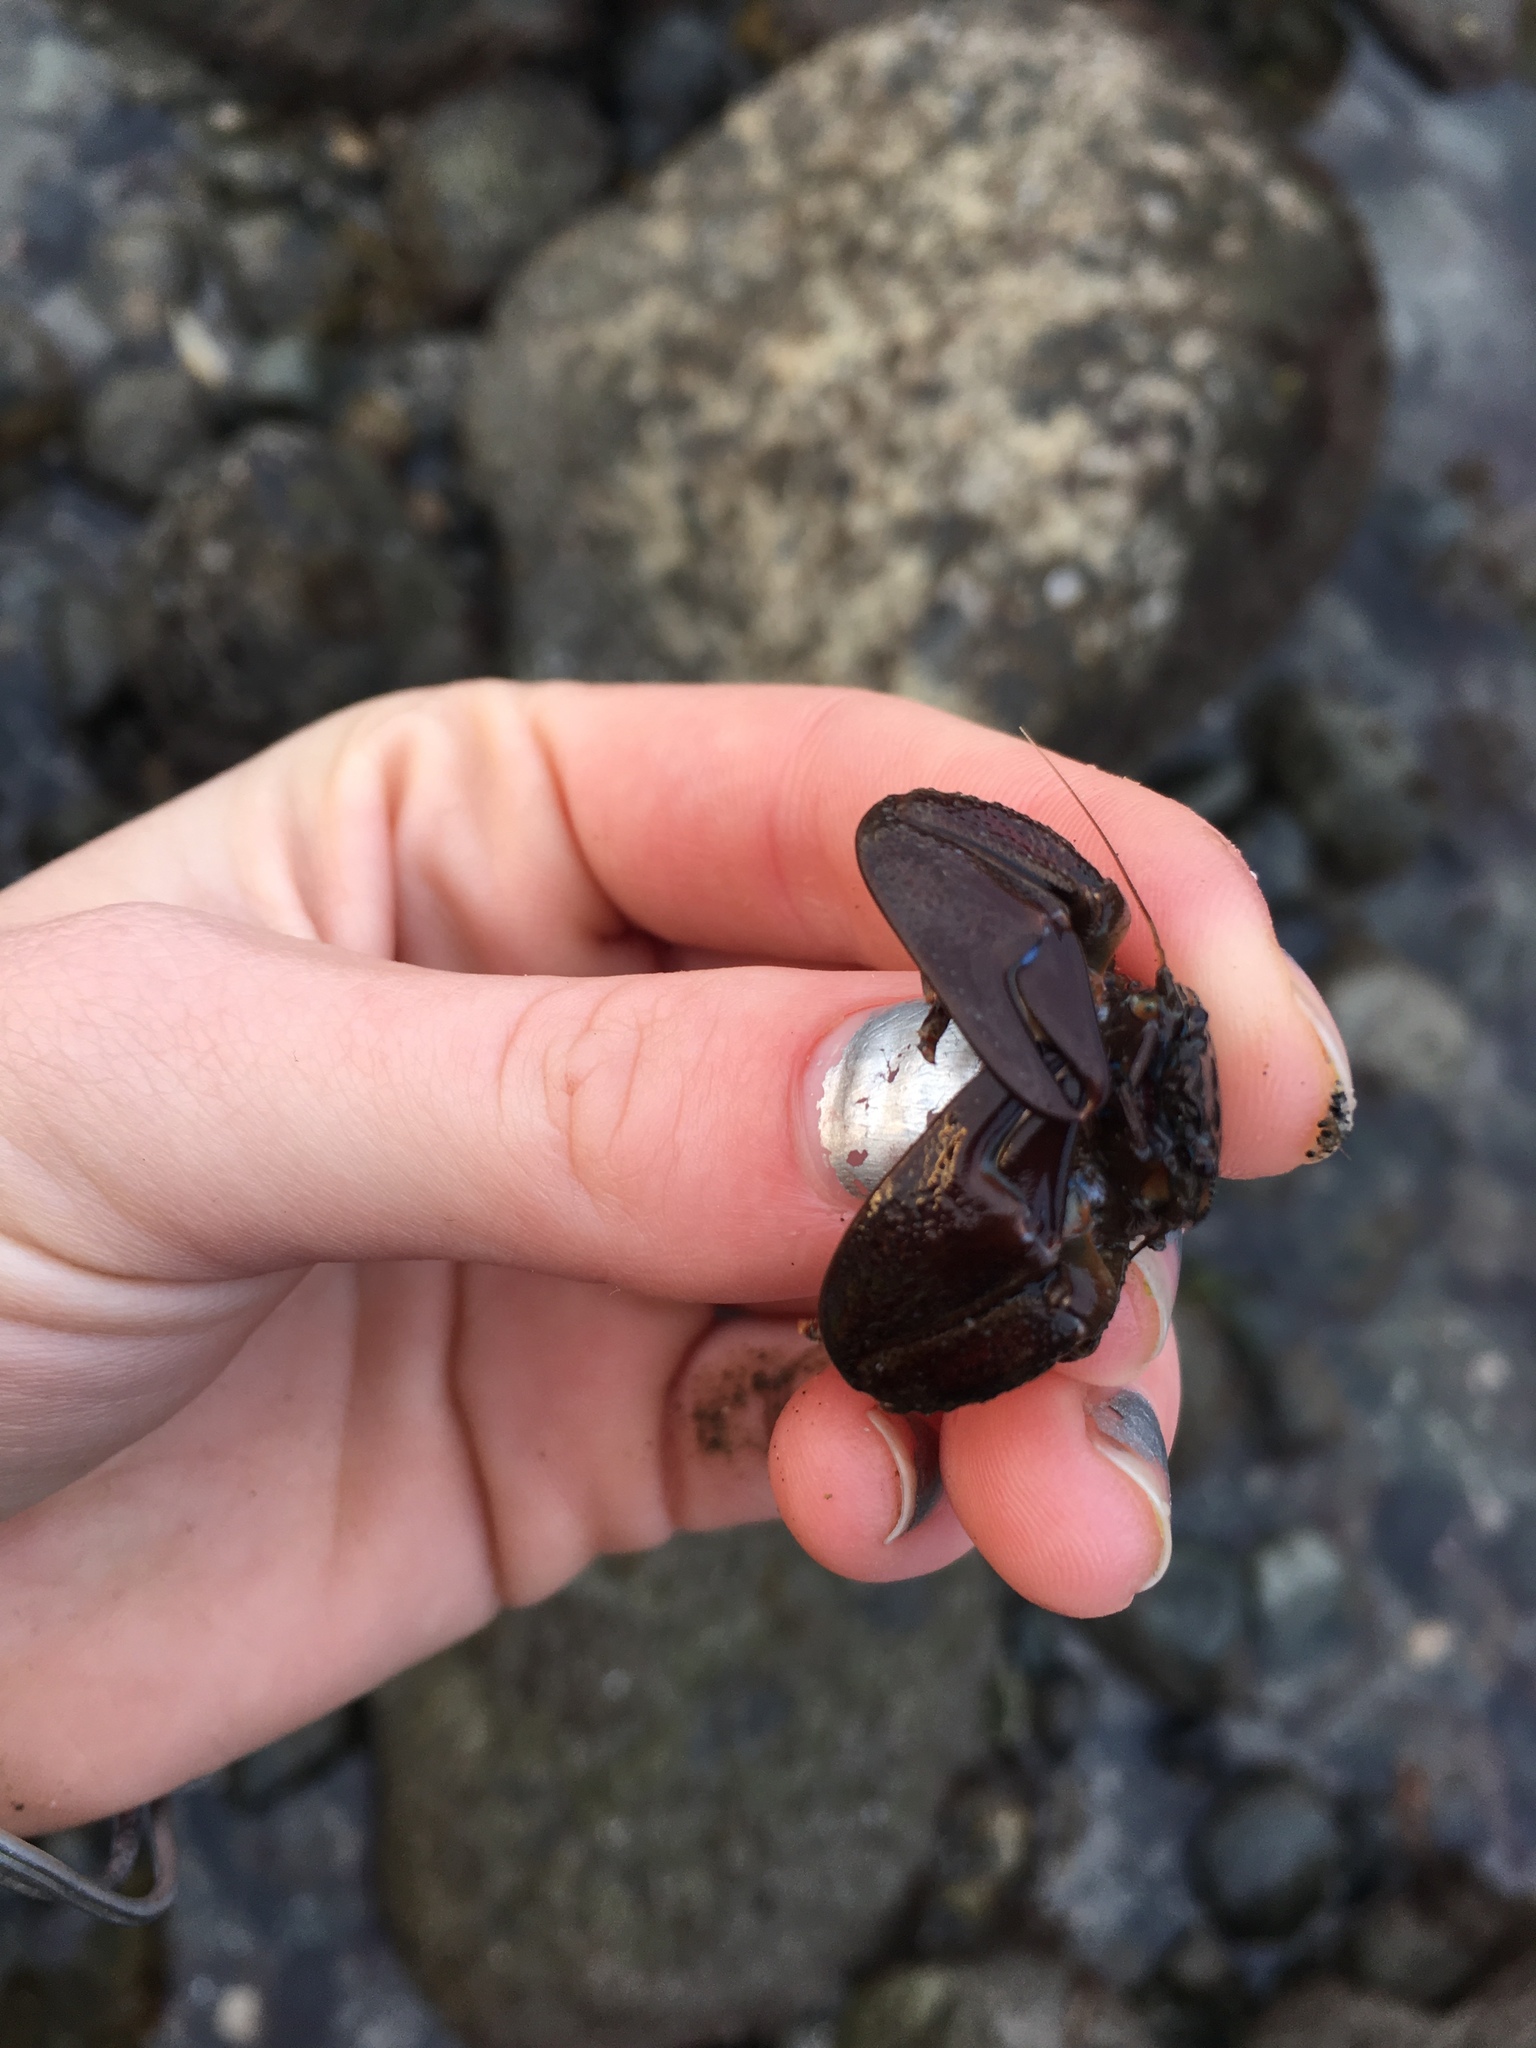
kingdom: Animalia
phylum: Arthropoda
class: Malacostraca
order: Decapoda
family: Porcellanidae
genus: Petrolisthes
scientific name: Petrolisthes eriomerus
